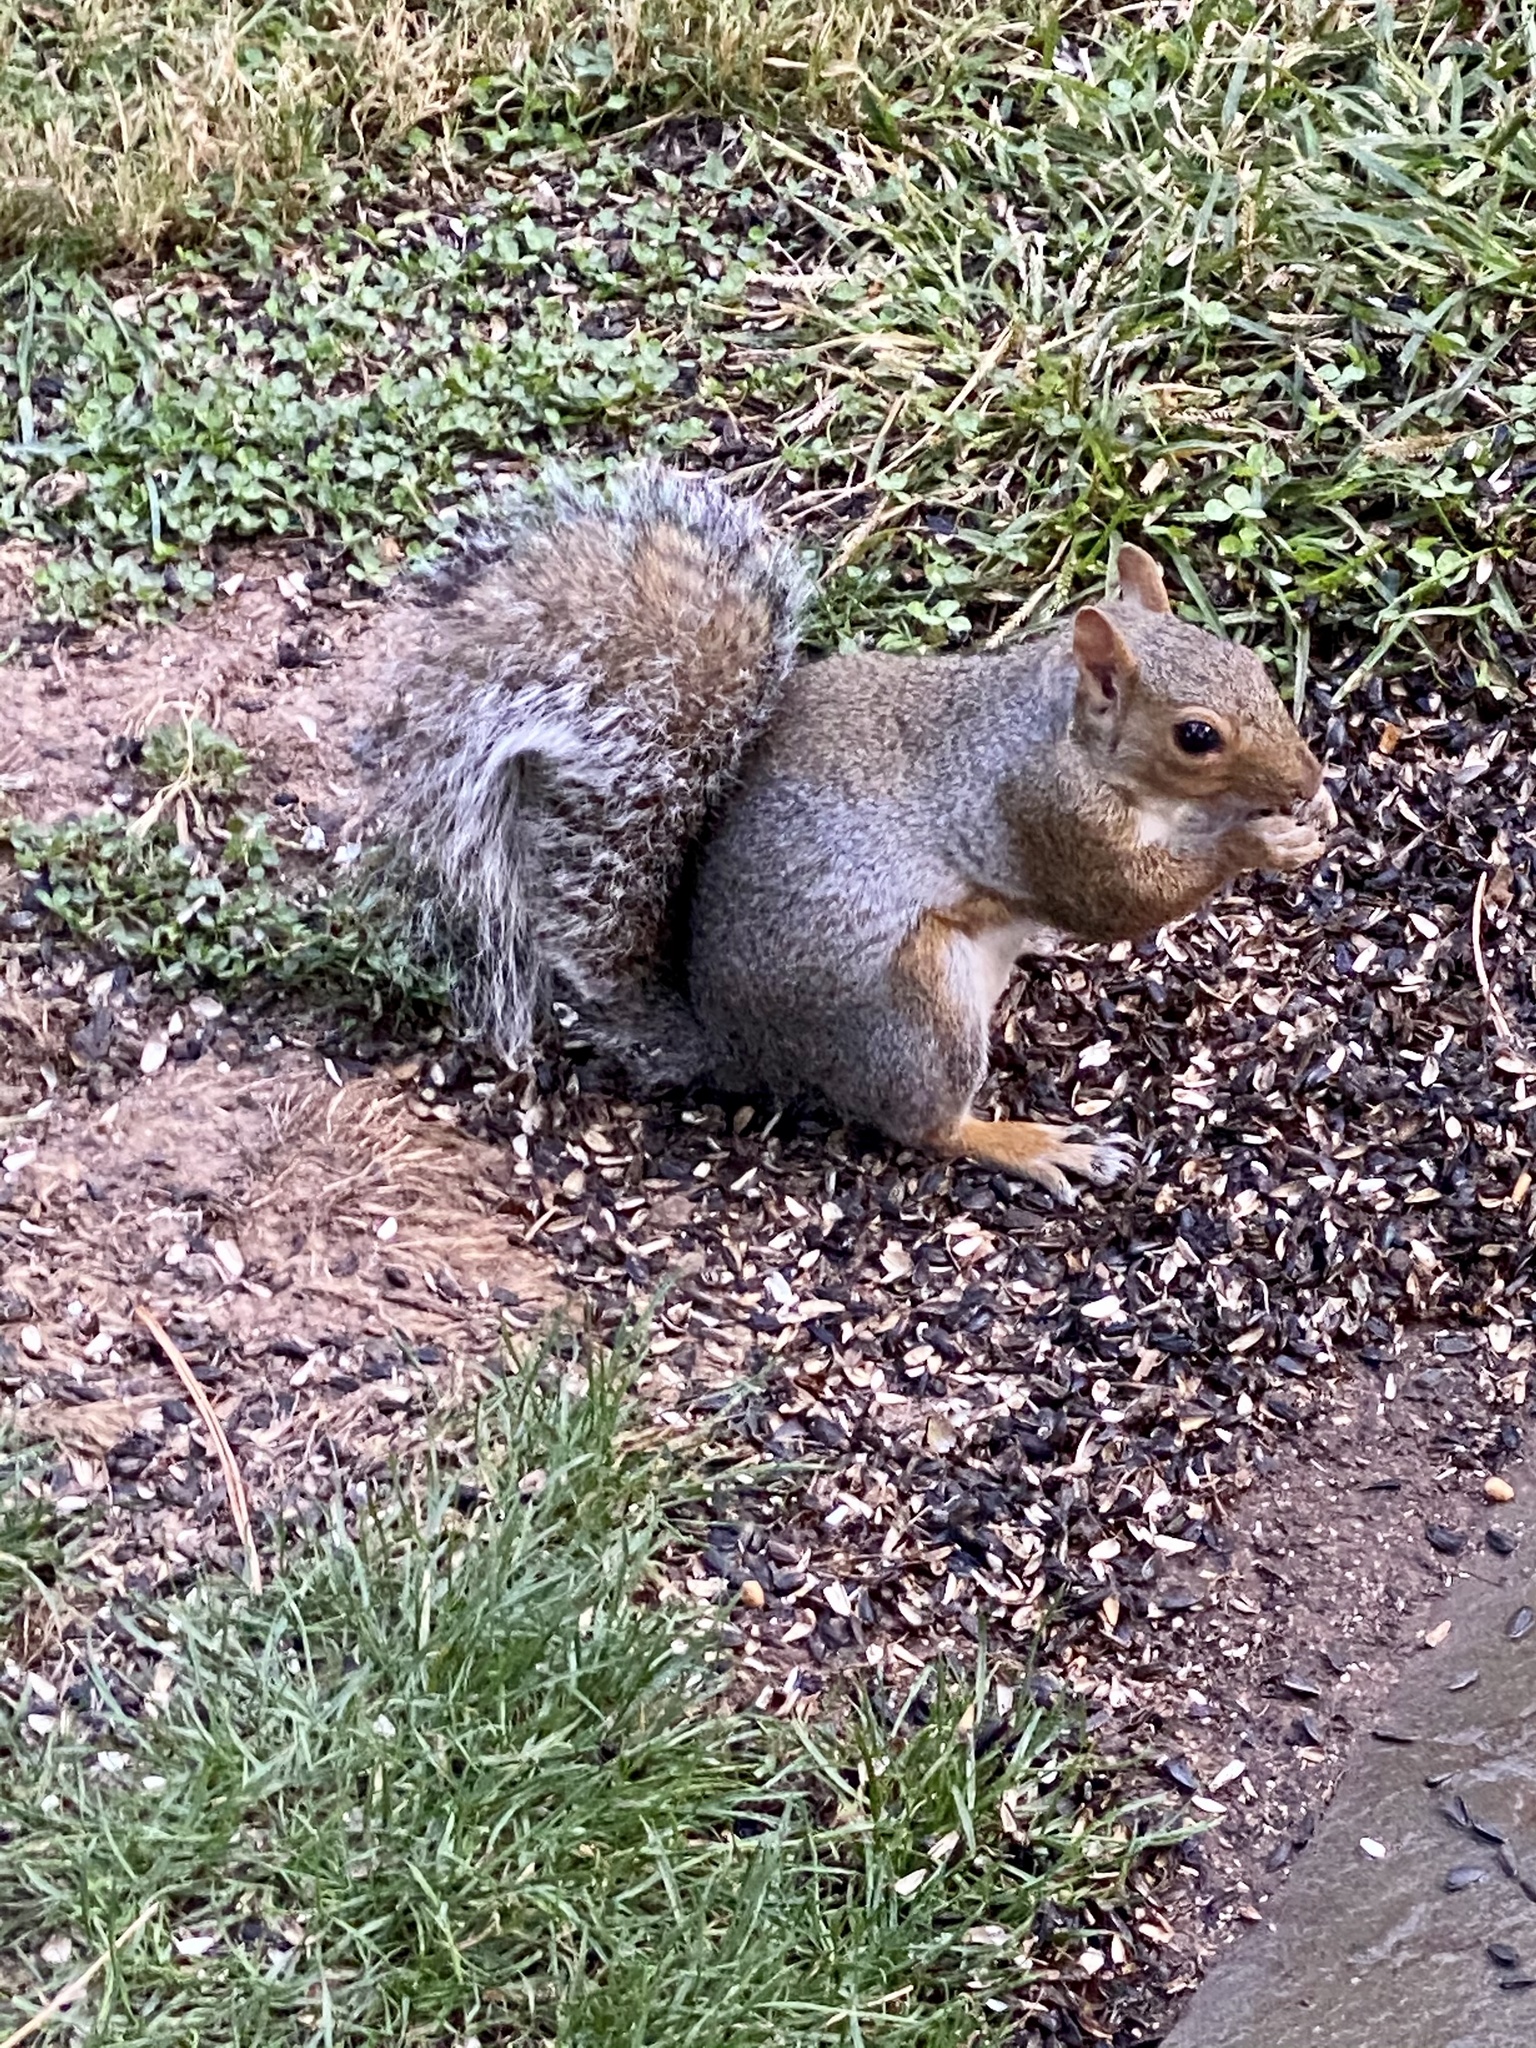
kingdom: Animalia
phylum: Chordata
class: Mammalia
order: Rodentia
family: Sciuridae
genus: Sciurus
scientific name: Sciurus carolinensis
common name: Eastern gray squirrel
